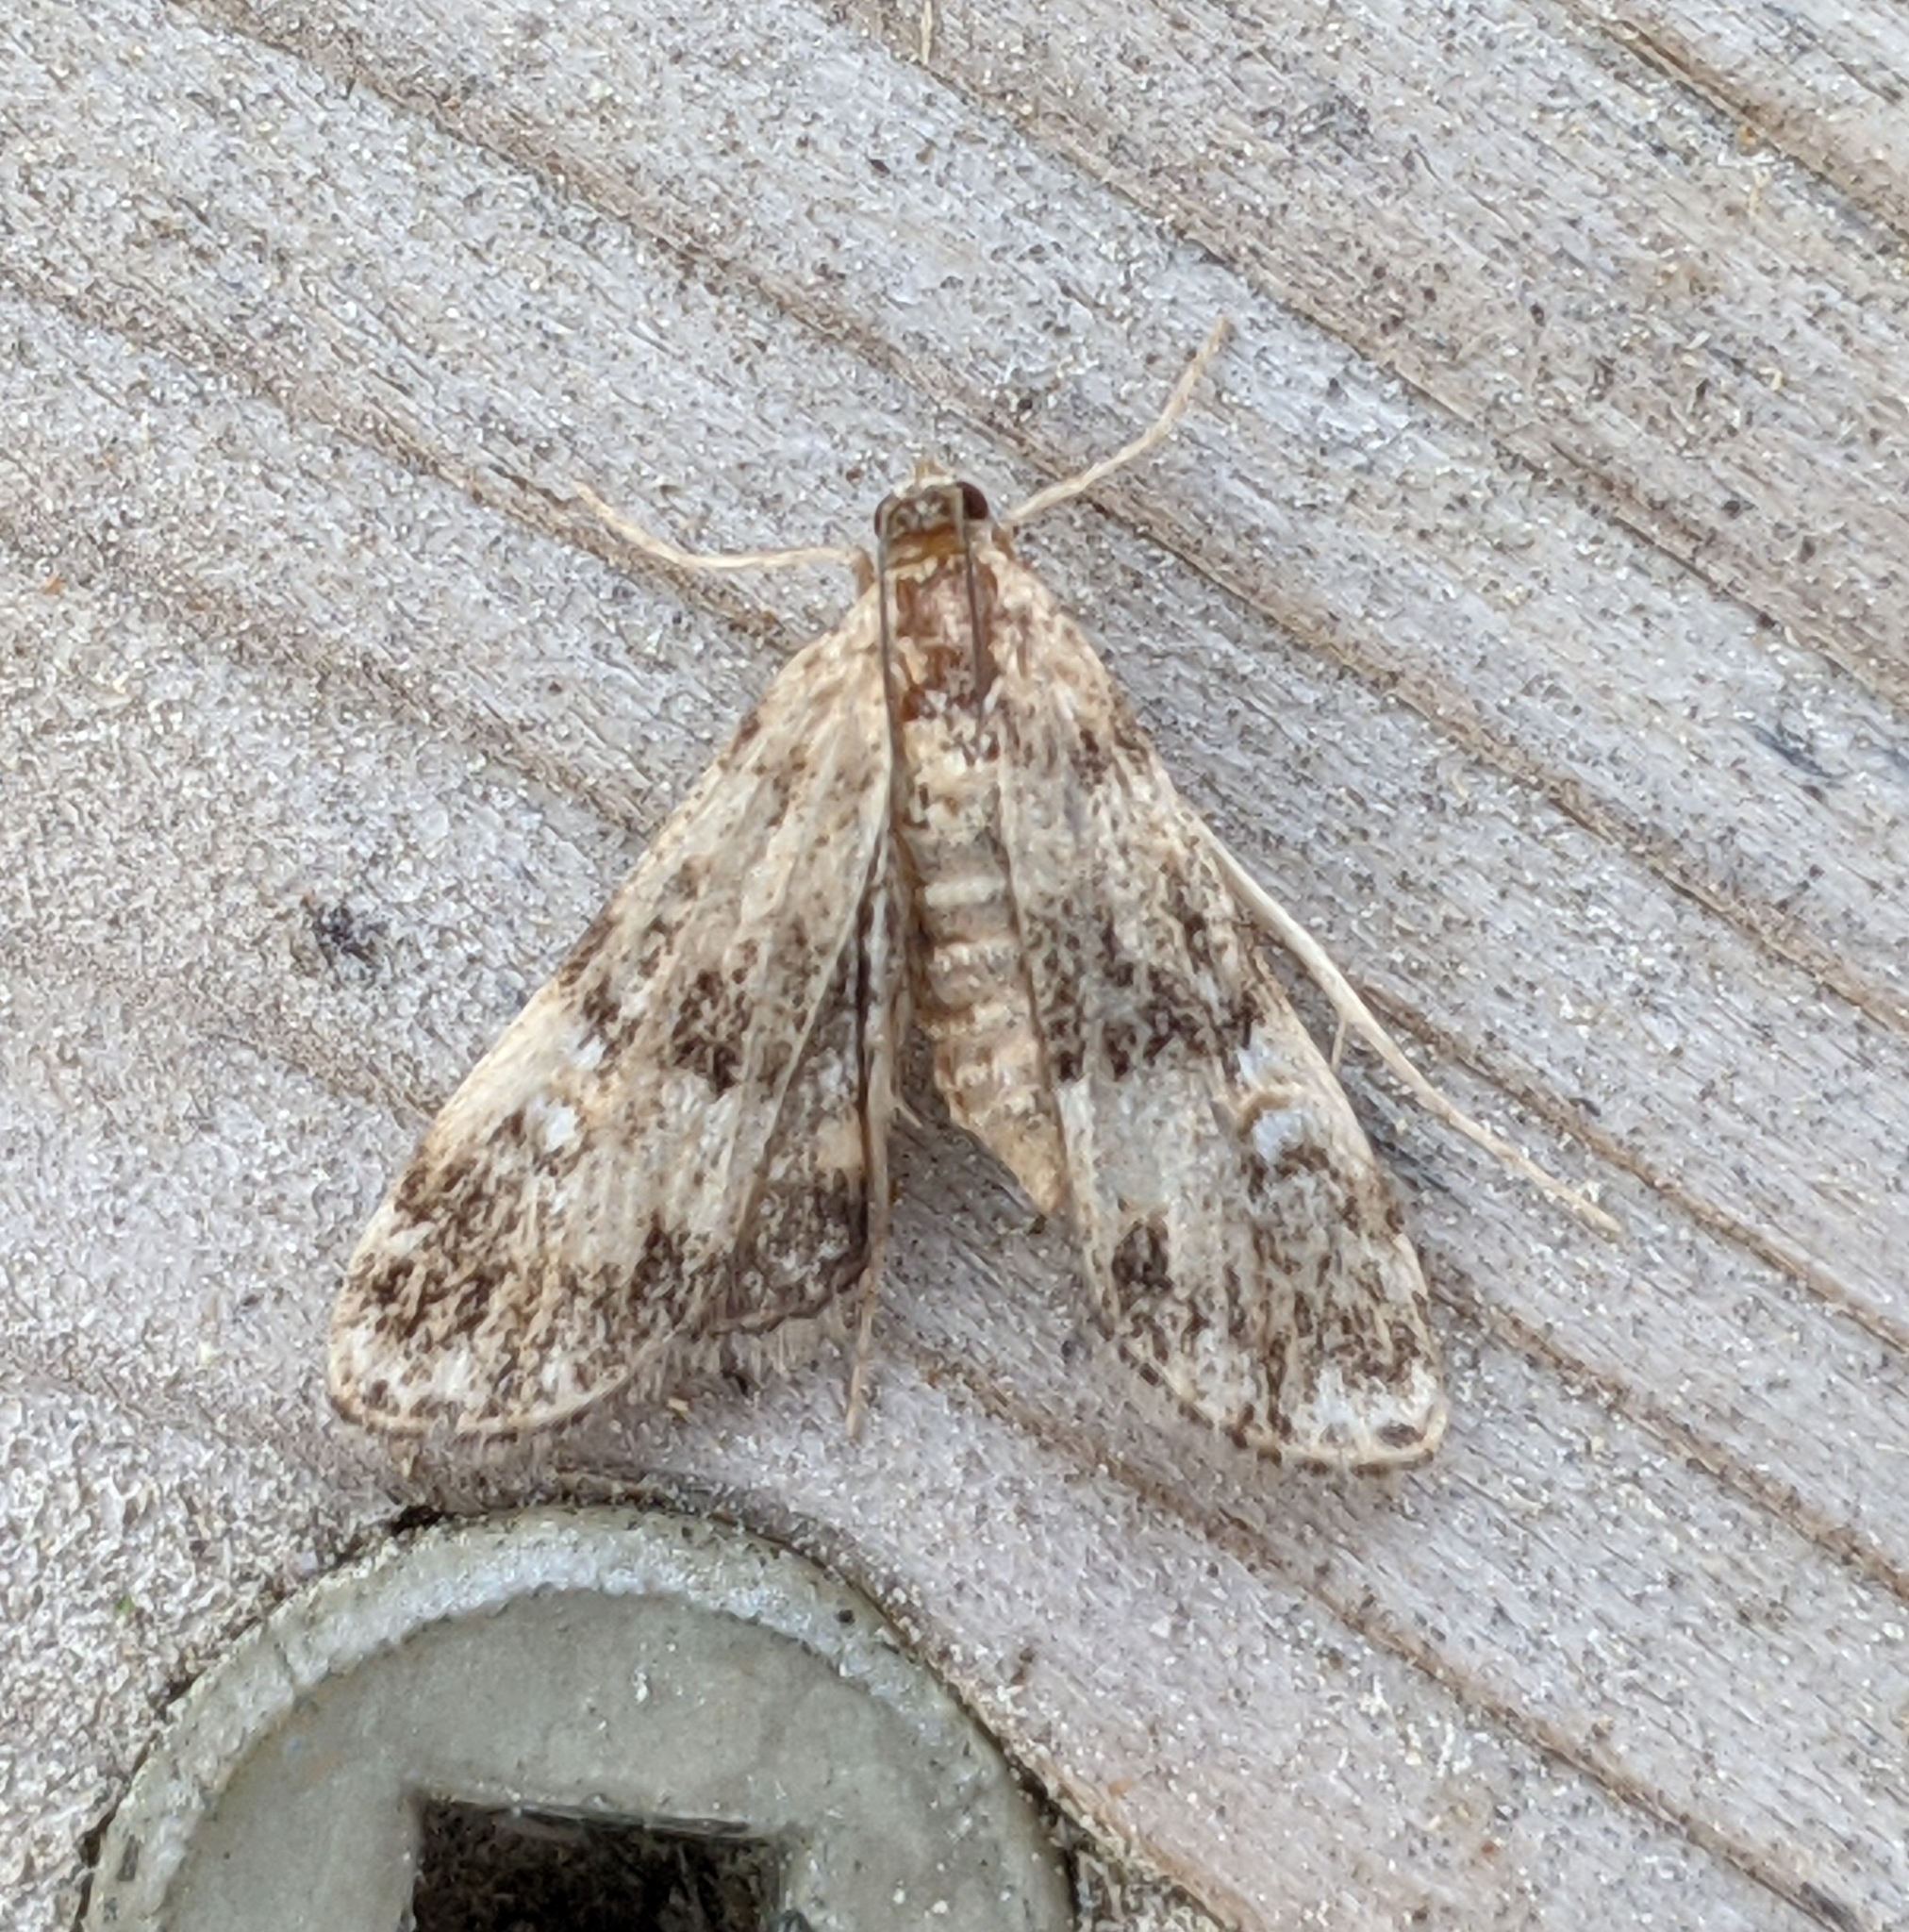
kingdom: Animalia
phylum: Arthropoda
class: Insecta
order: Lepidoptera
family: Crambidae
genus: Elophila
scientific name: Elophila obliteralis
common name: Waterlily leafcutter moth
